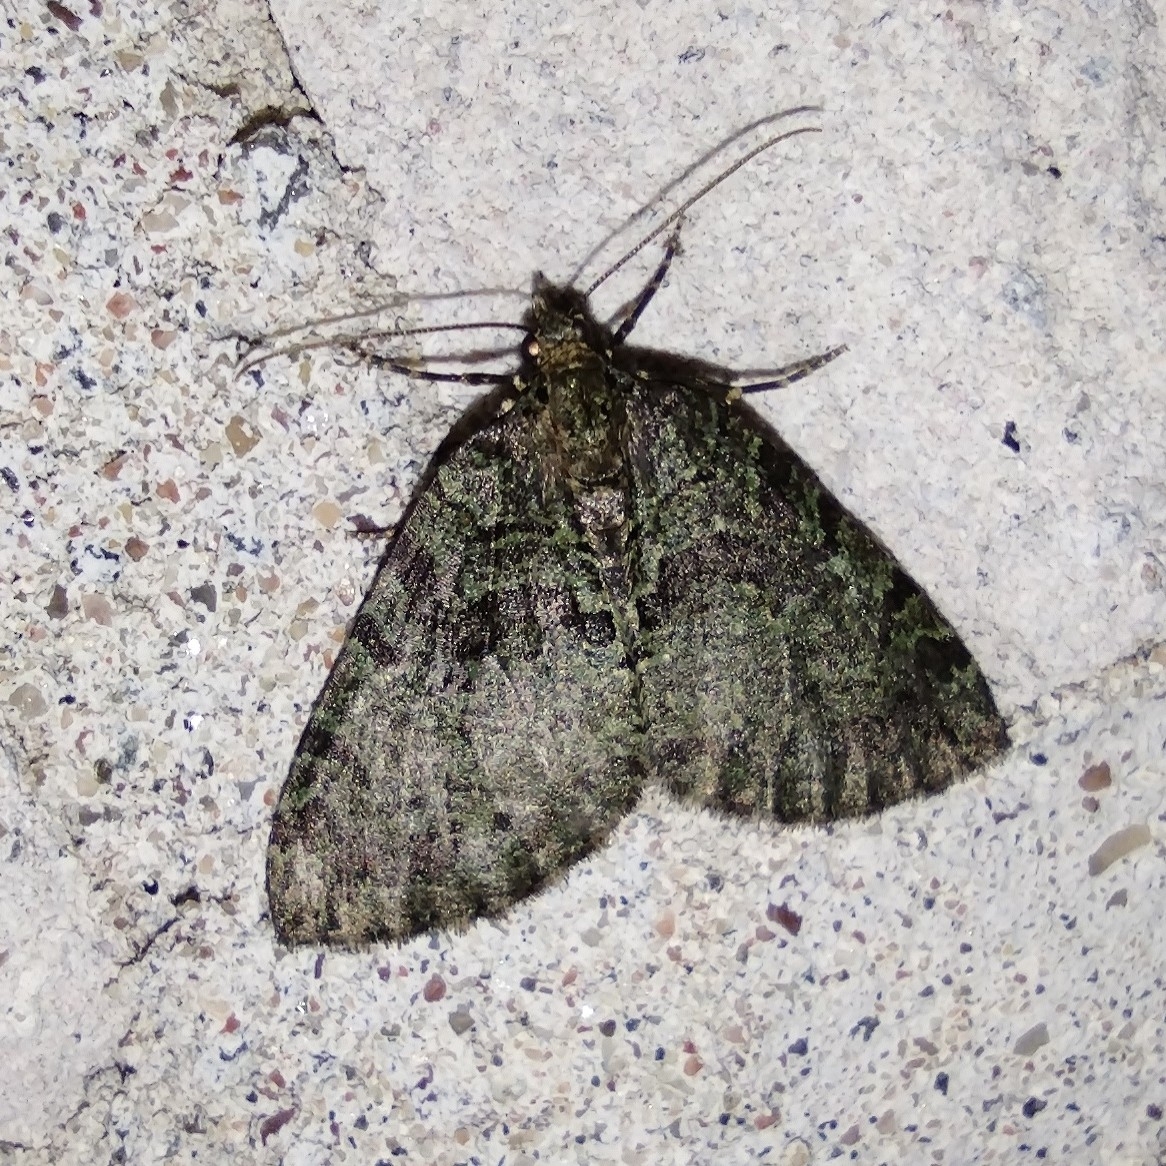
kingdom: Animalia
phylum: Arthropoda
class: Insecta
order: Lepidoptera
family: Geometridae
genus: Hydriomena
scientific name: Hydriomena furcata
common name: July highflyer
